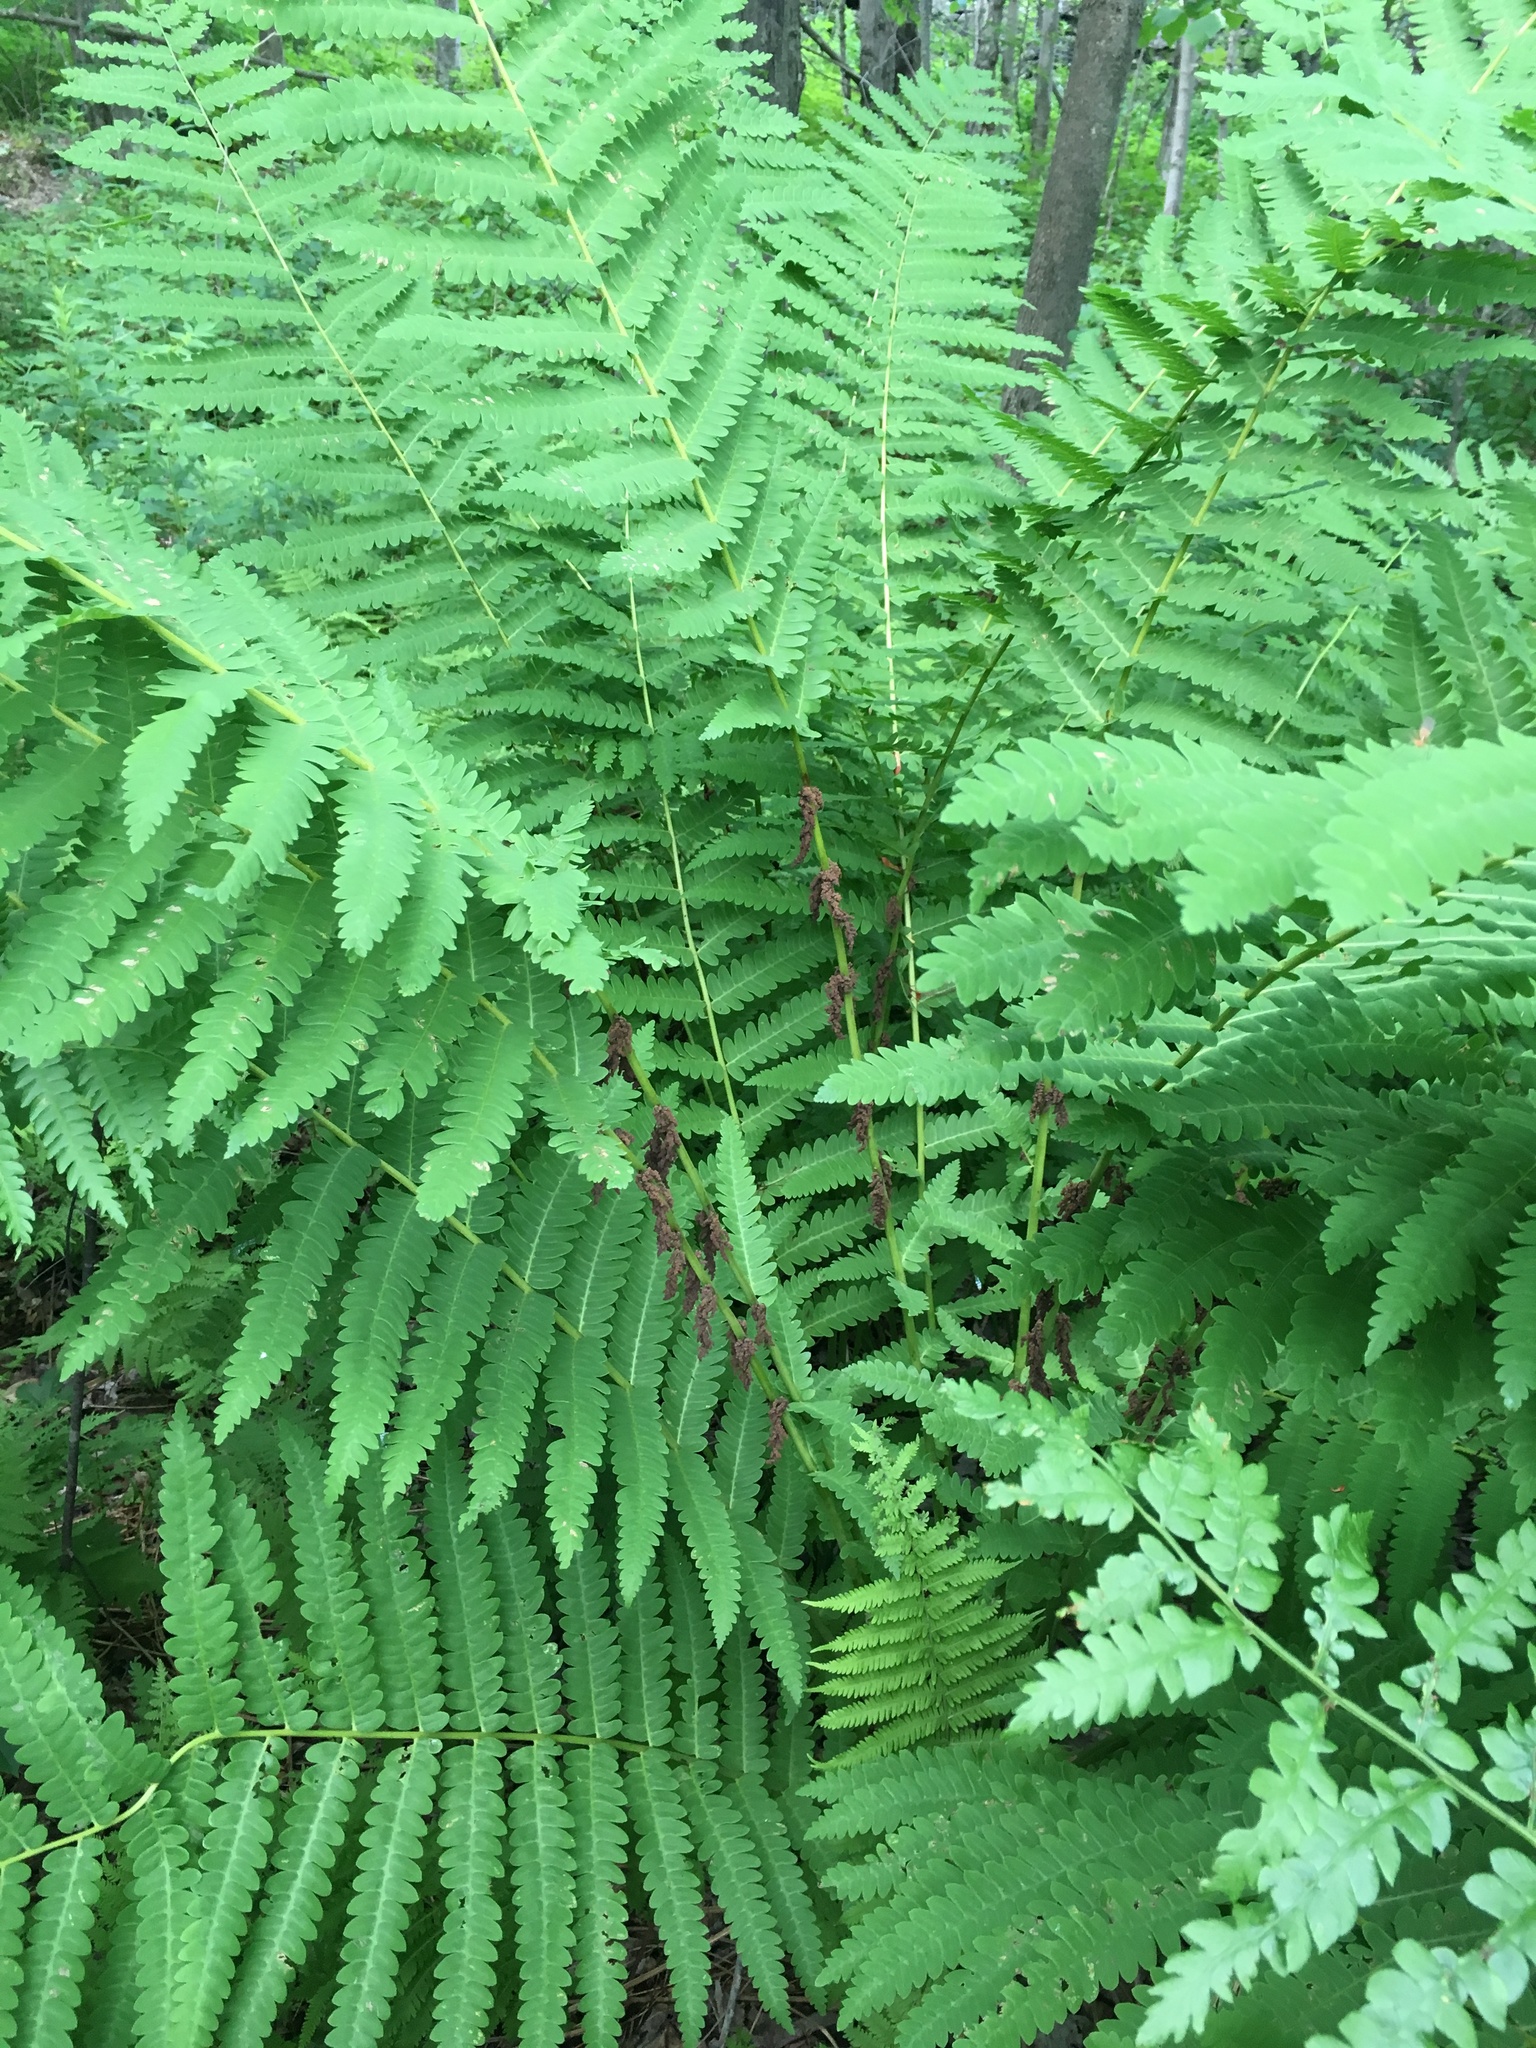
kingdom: Plantae
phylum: Tracheophyta
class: Polypodiopsida
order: Osmundales
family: Osmundaceae
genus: Claytosmunda
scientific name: Claytosmunda claytoniana
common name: Clayton's fern
